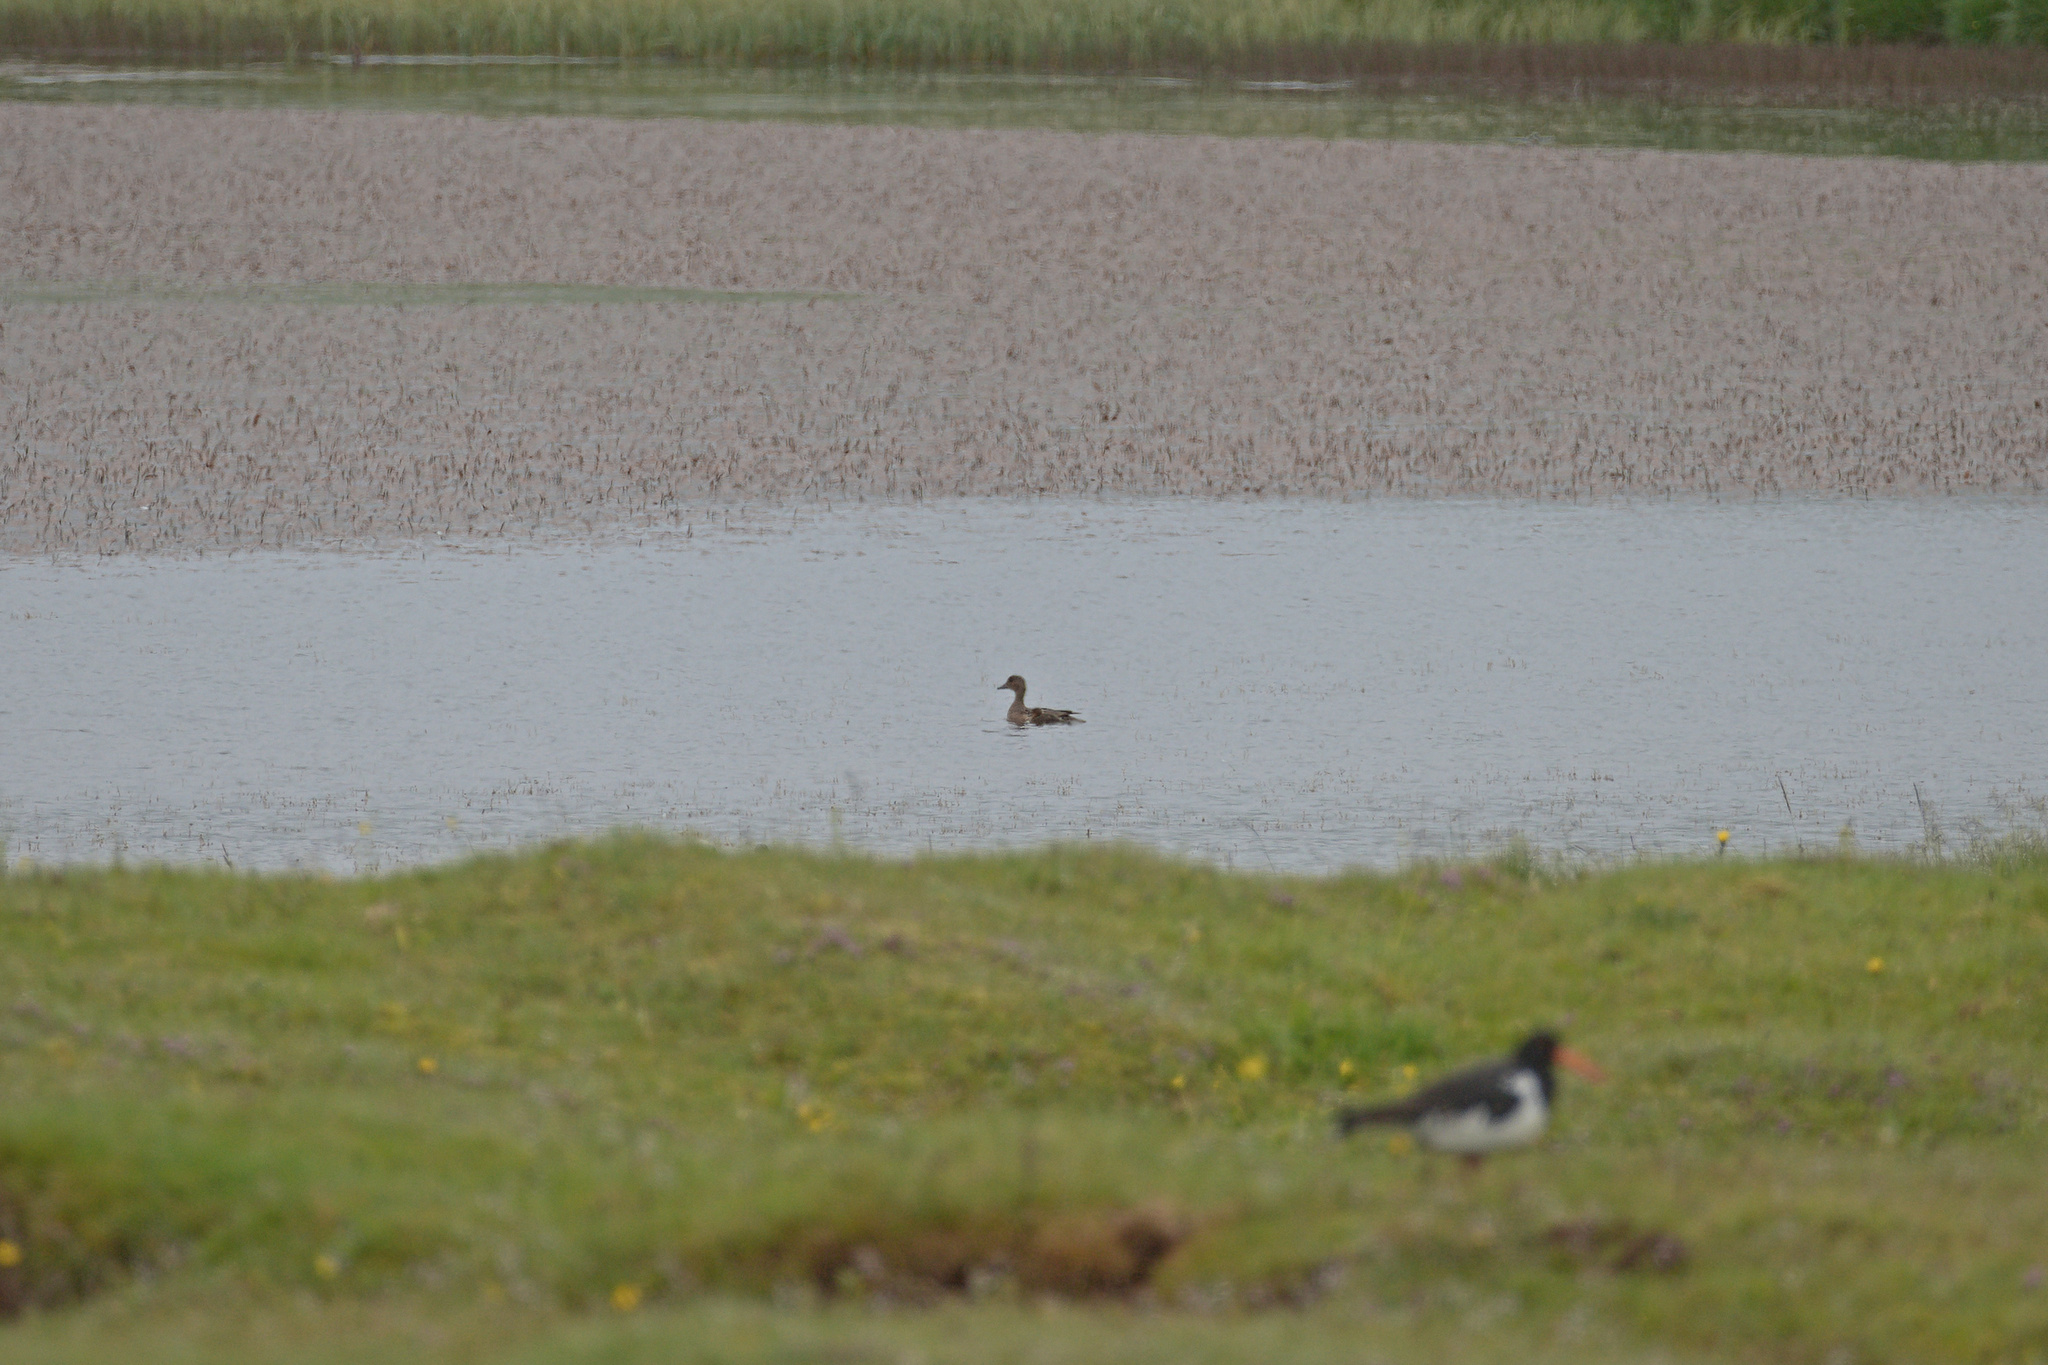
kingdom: Animalia
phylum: Chordata
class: Aves
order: Anseriformes
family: Anatidae
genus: Mareca
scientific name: Mareca penelope
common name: Eurasian wigeon
